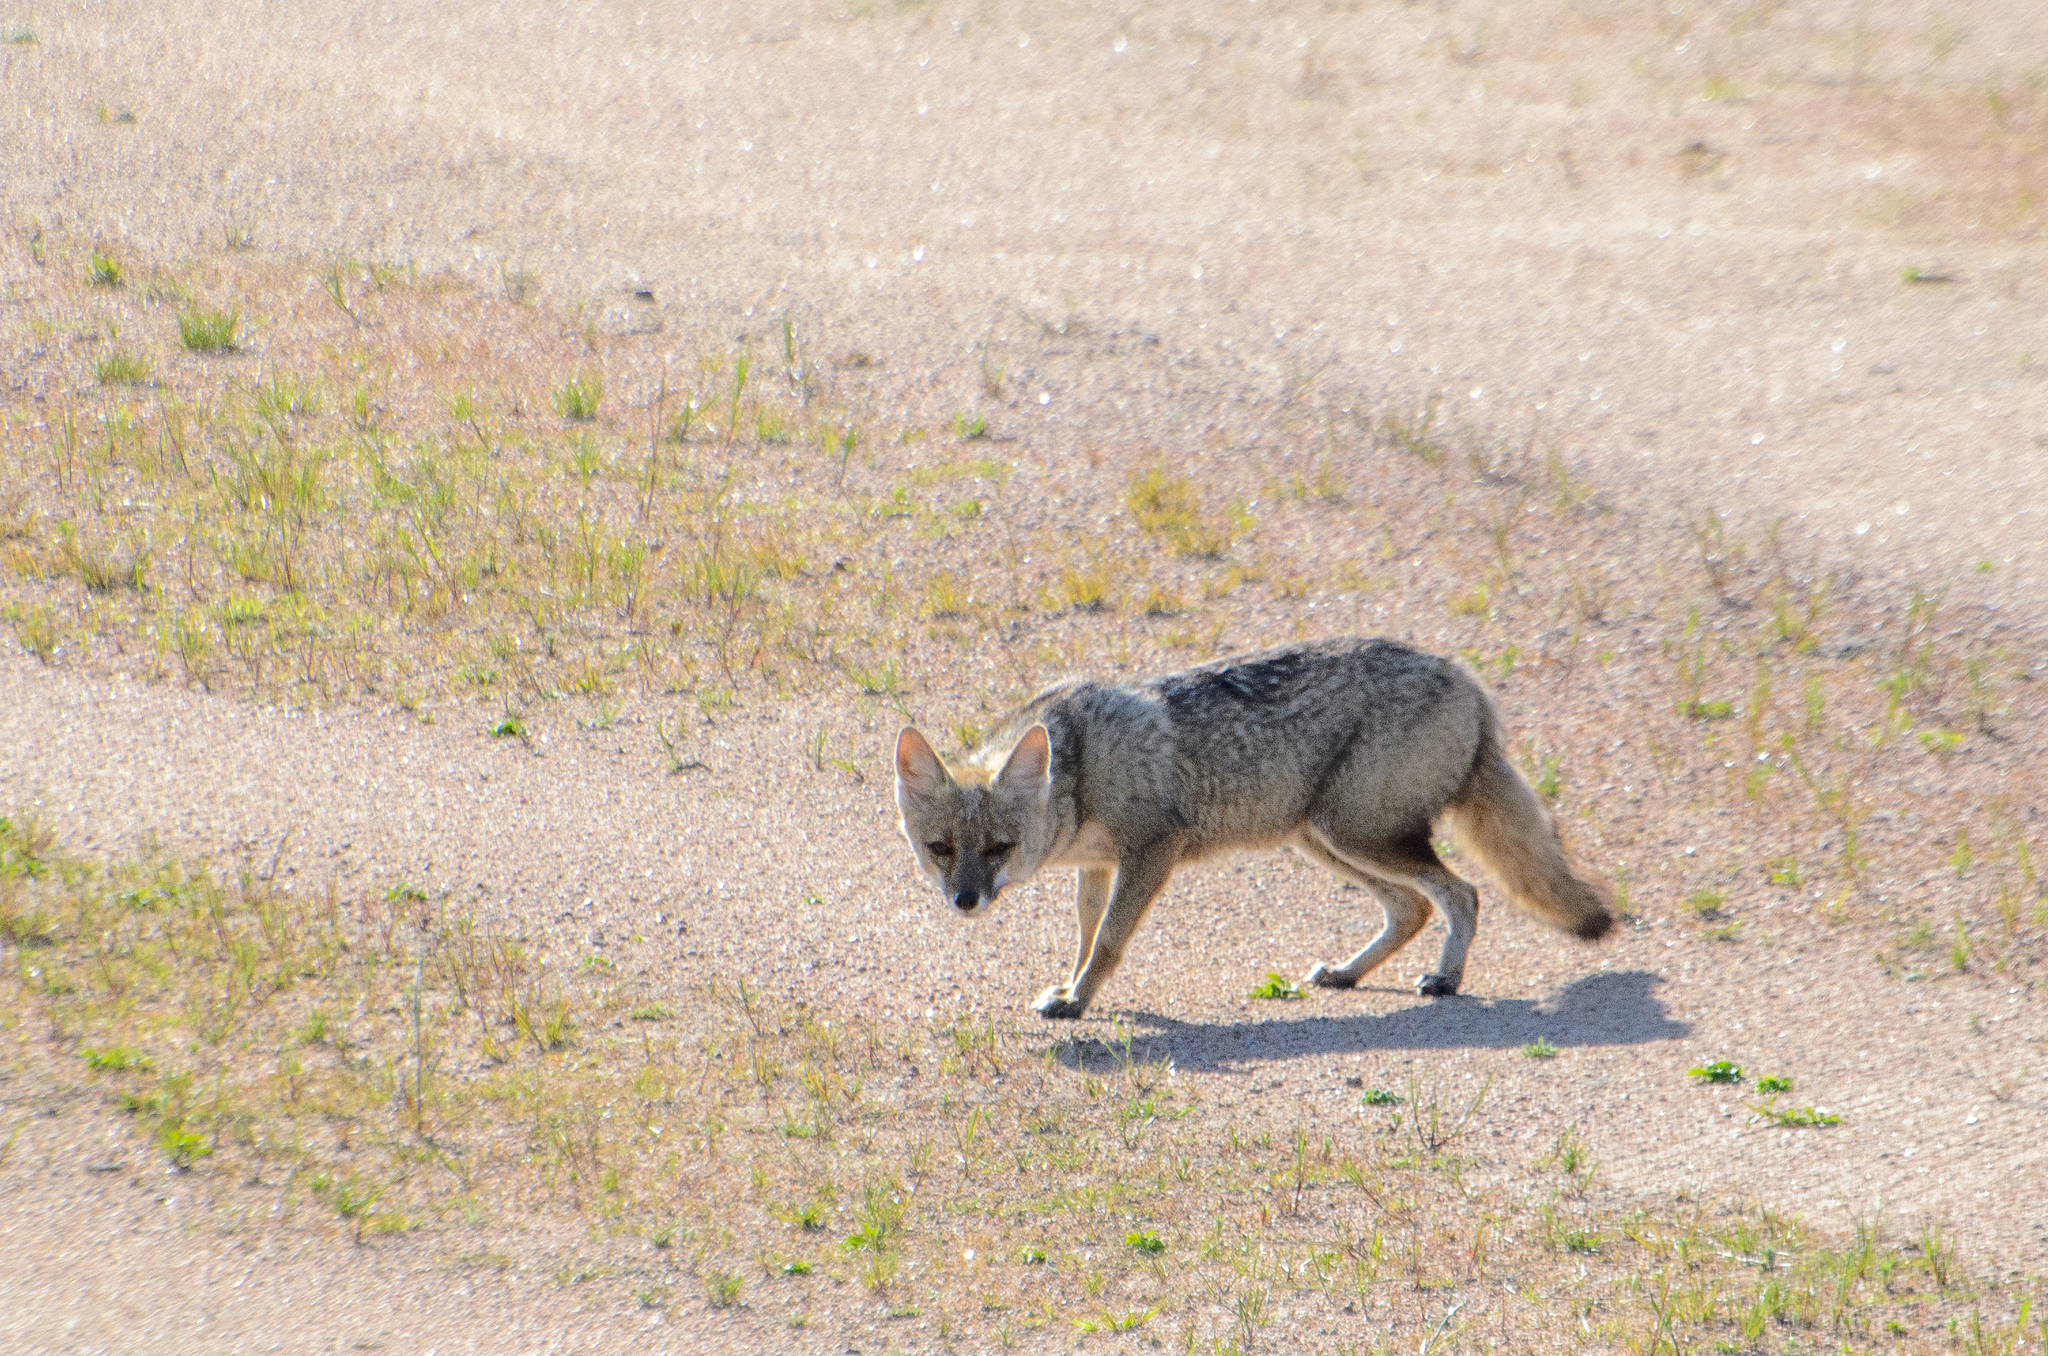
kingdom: Animalia
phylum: Chordata
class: Mammalia
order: Carnivora
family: Canidae
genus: Lycalopex
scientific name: Lycalopex gymnocercus
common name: Pampas fox
